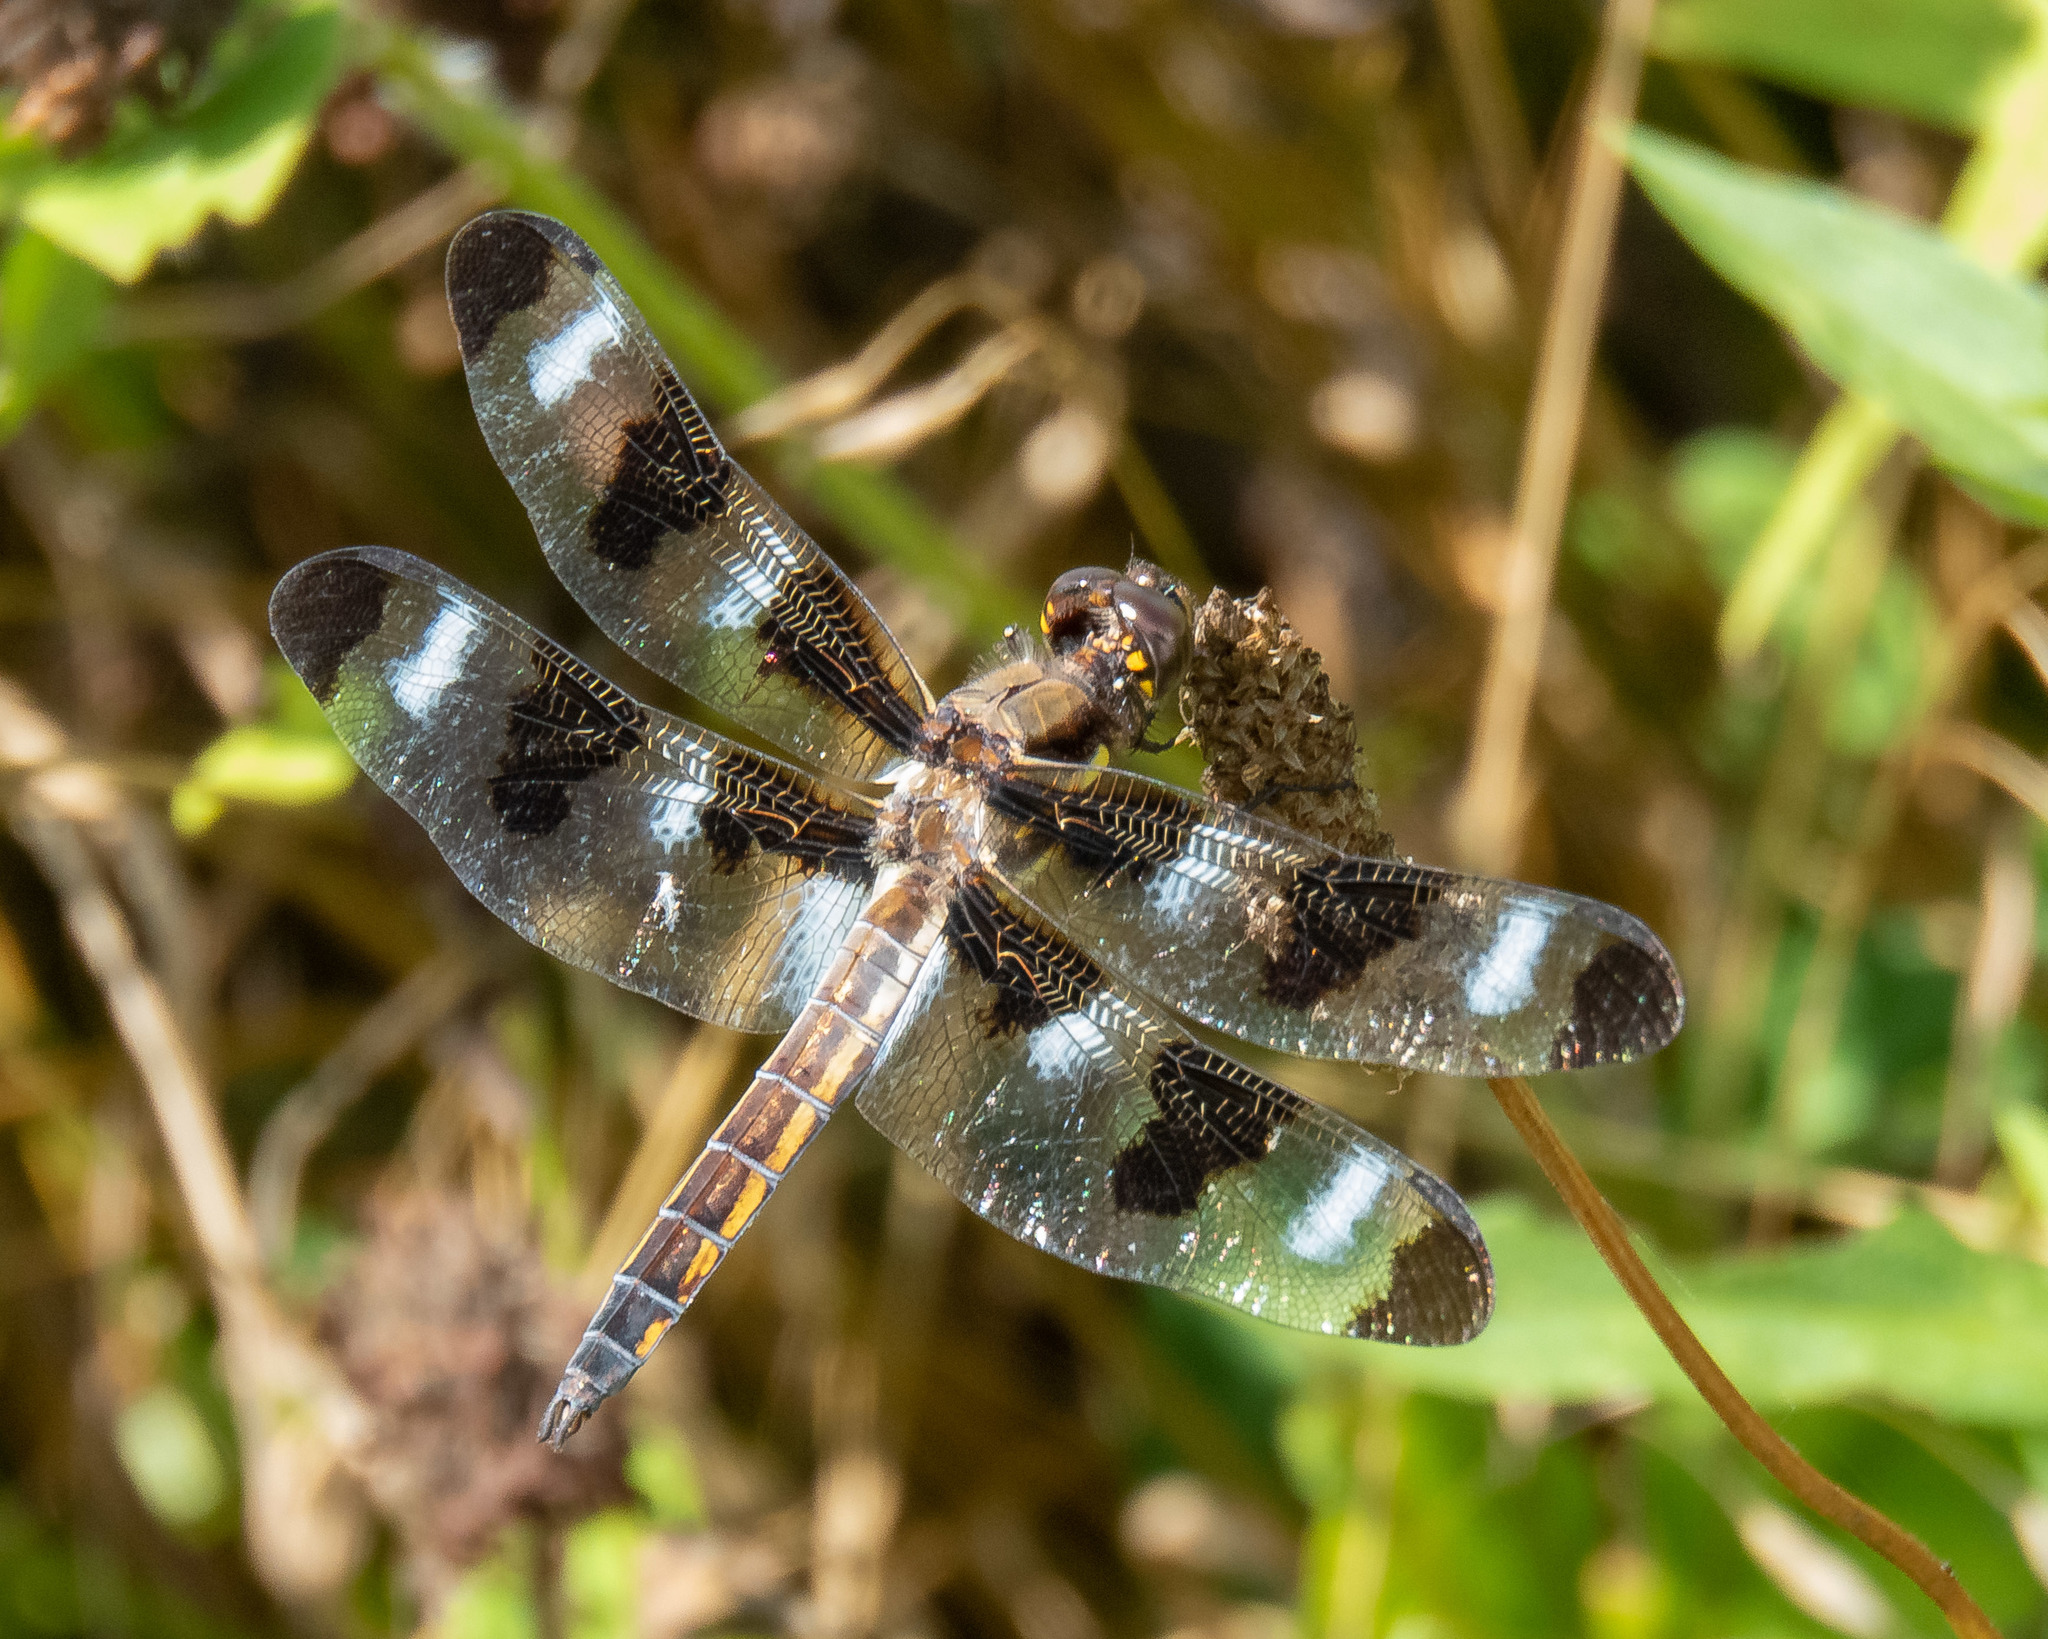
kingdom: Animalia
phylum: Arthropoda
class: Insecta
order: Odonata
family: Libellulidae
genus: Libellula
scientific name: Libellula pulchella
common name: Twelve-spotted skimmer
